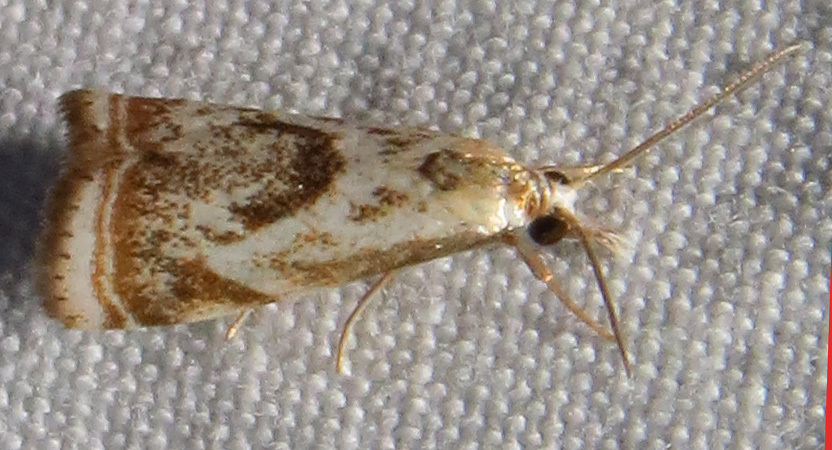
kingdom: Animalia
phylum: Arthropoda
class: Insecta
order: Lepidoptera
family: Crambidae
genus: Microcrambus
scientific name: Microcrambus elegans
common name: Elegant grass-veneer
